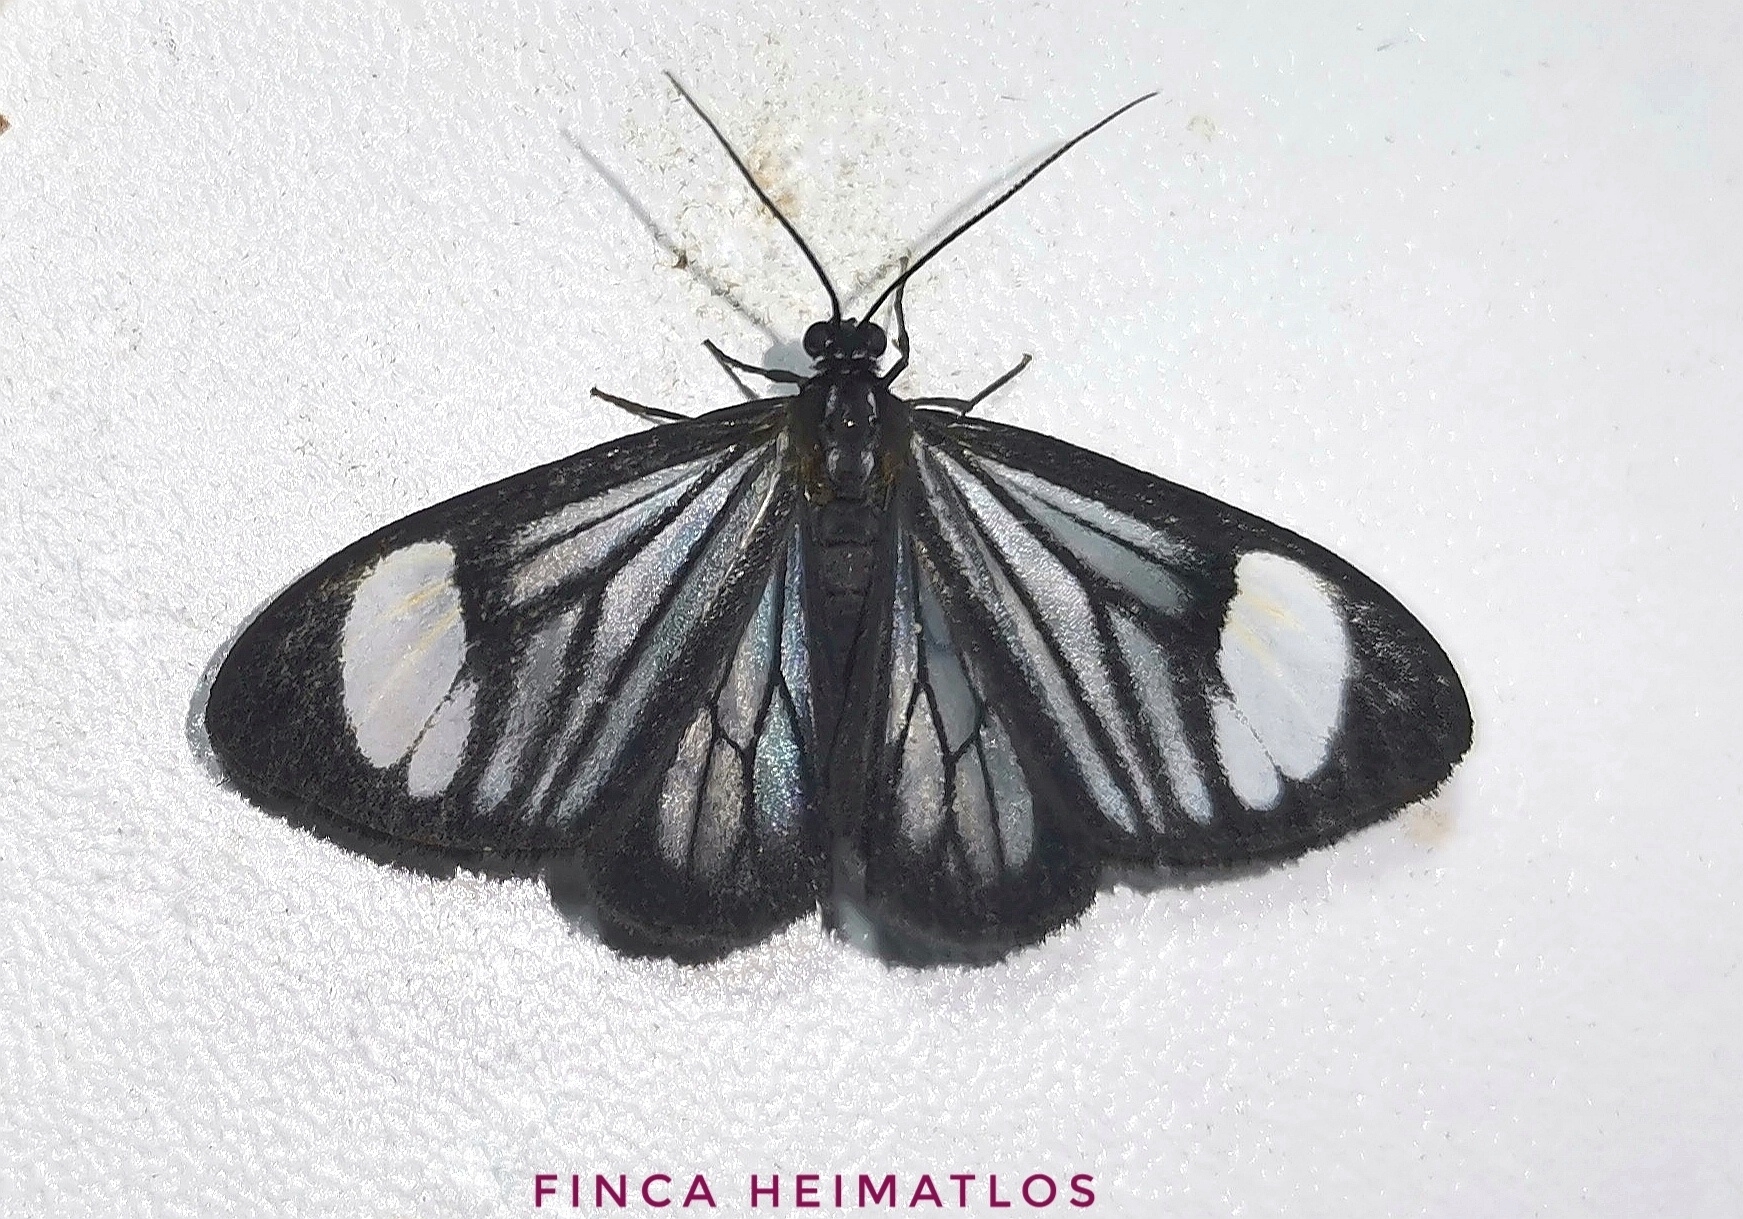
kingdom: Animalia
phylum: Arthropoda
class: Insecta
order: Lepidoptera
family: Notodontidae
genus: Monocreagra
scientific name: Monocreagra pheloides
